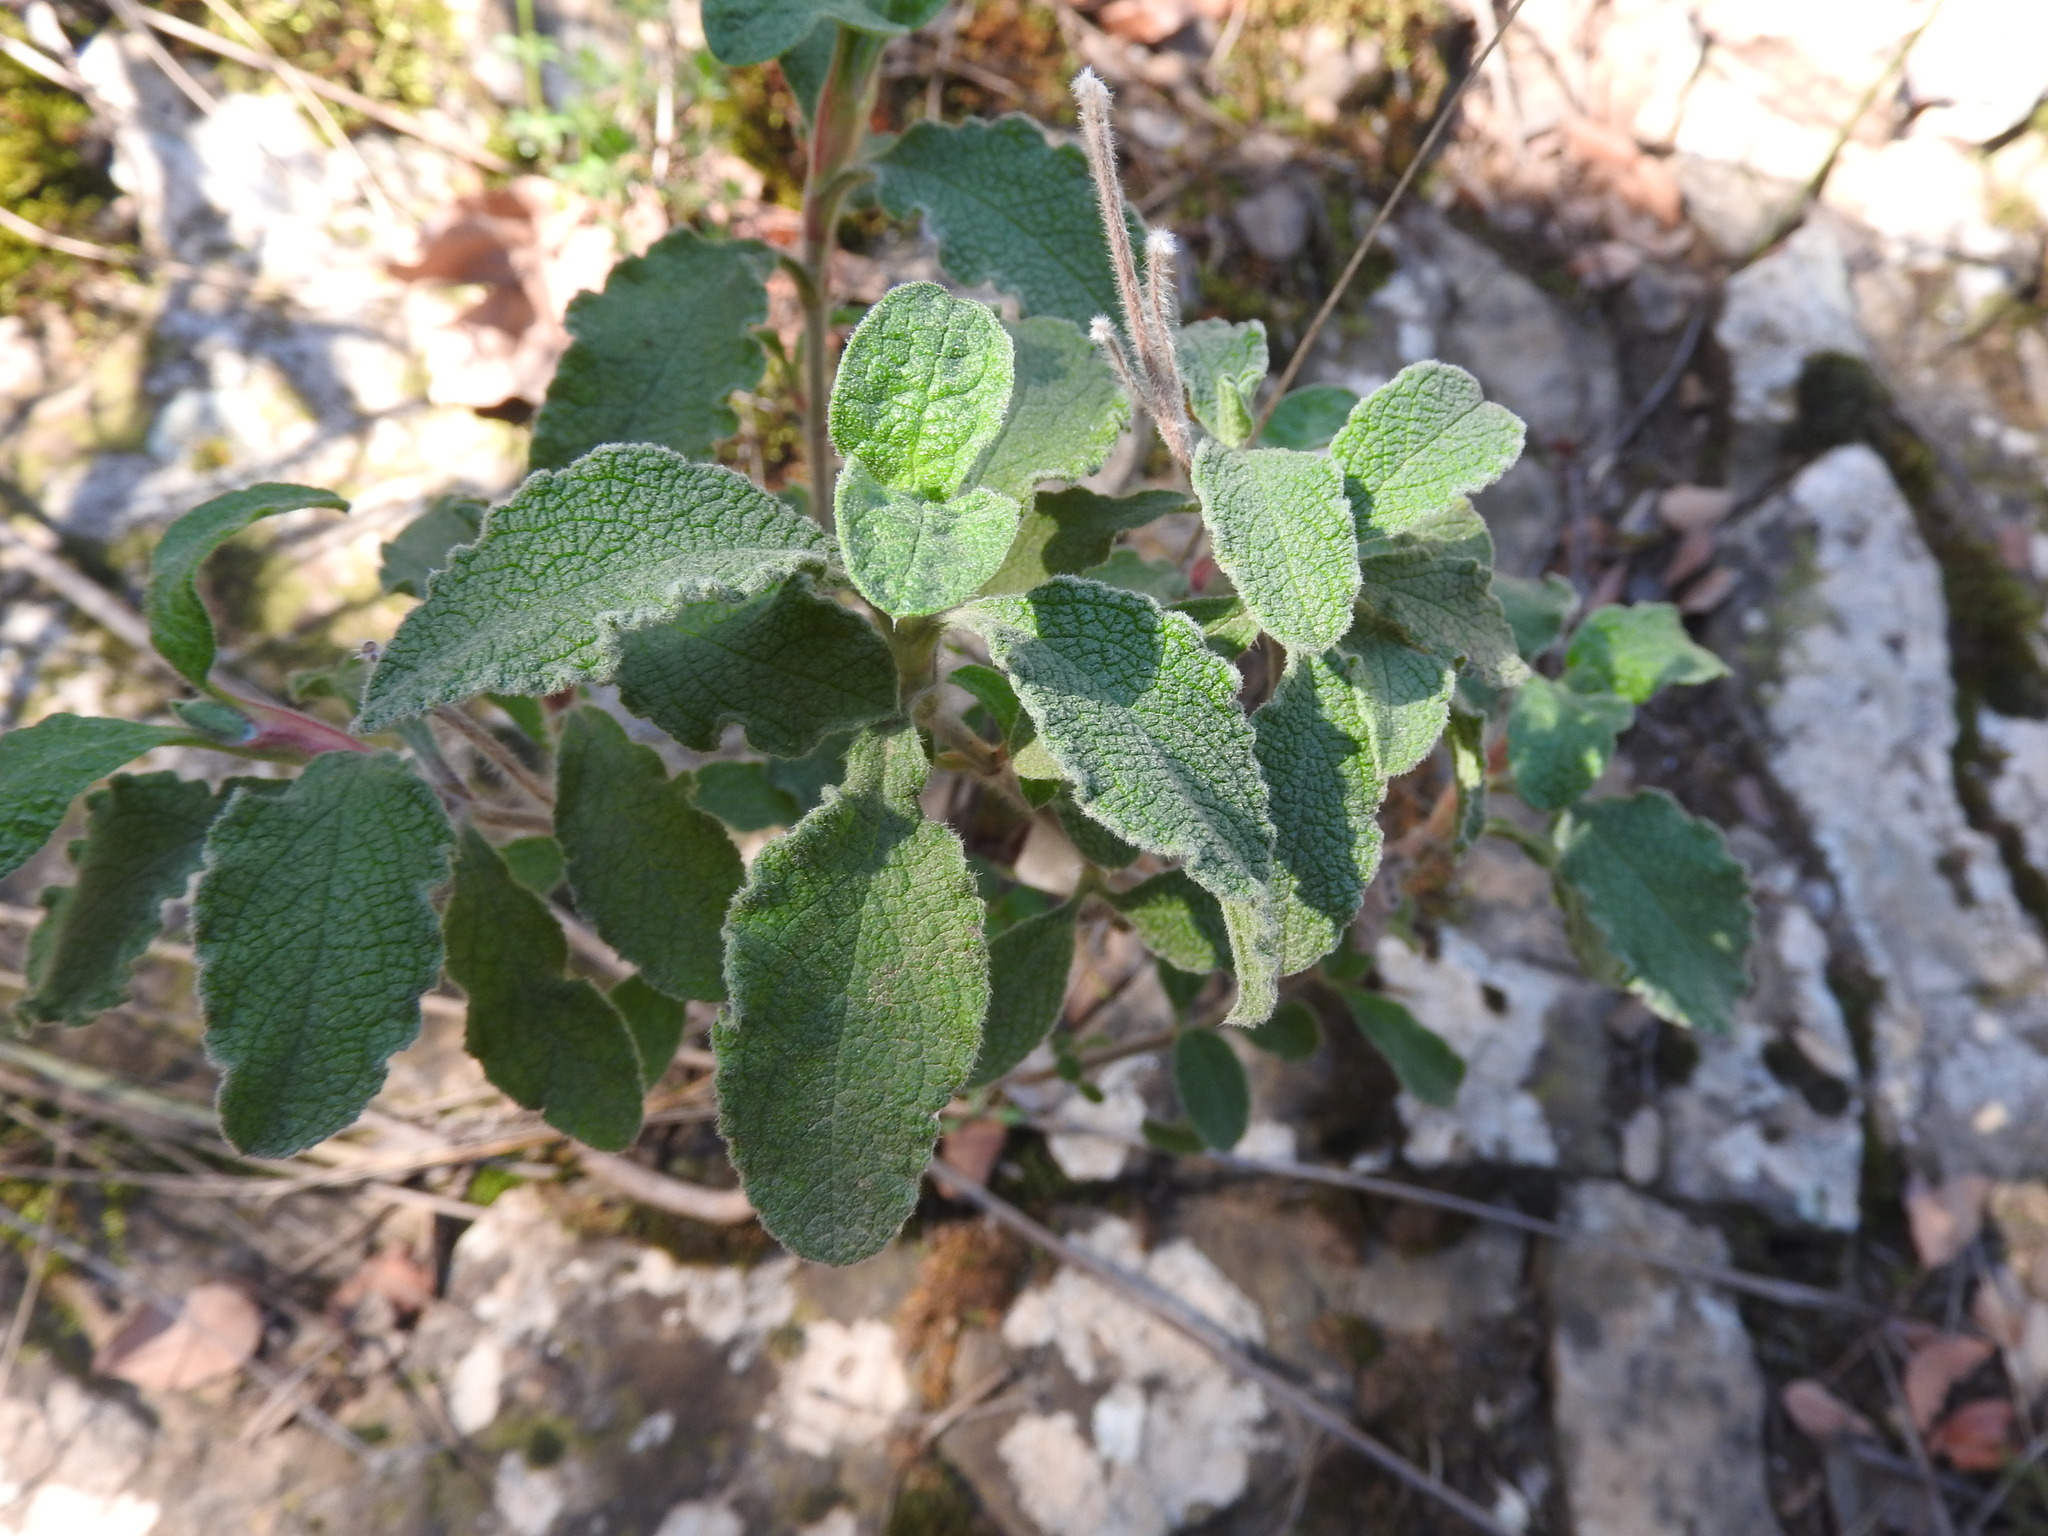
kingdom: Plantae
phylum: Tracheophyta
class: Magnoliopsida
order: Malvales
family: Cistaceae
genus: Cistus
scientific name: Cistus creticus
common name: Cretan rockrose
